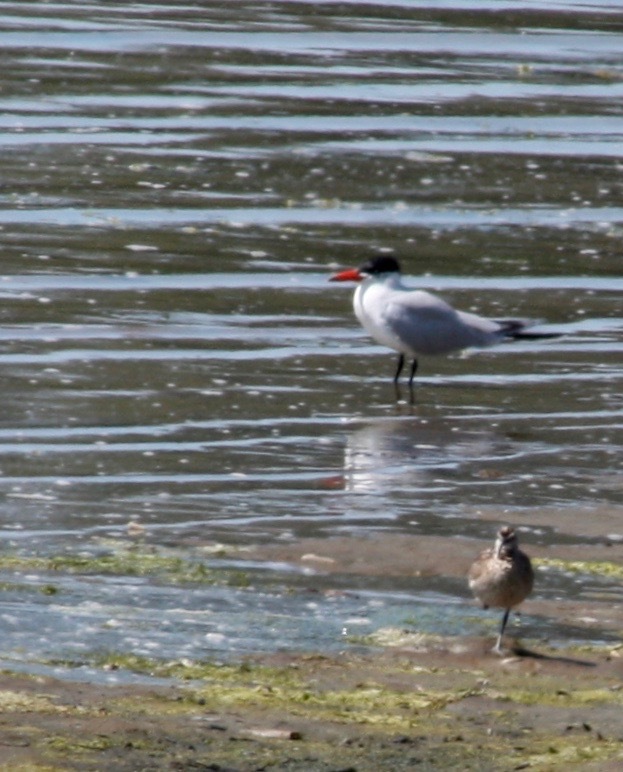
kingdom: Animalia
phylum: Chordata
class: Aves
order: Charadriiformes
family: Laridae
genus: Hydroprogne
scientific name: Hydroprogne caspia
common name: Caspian tern
